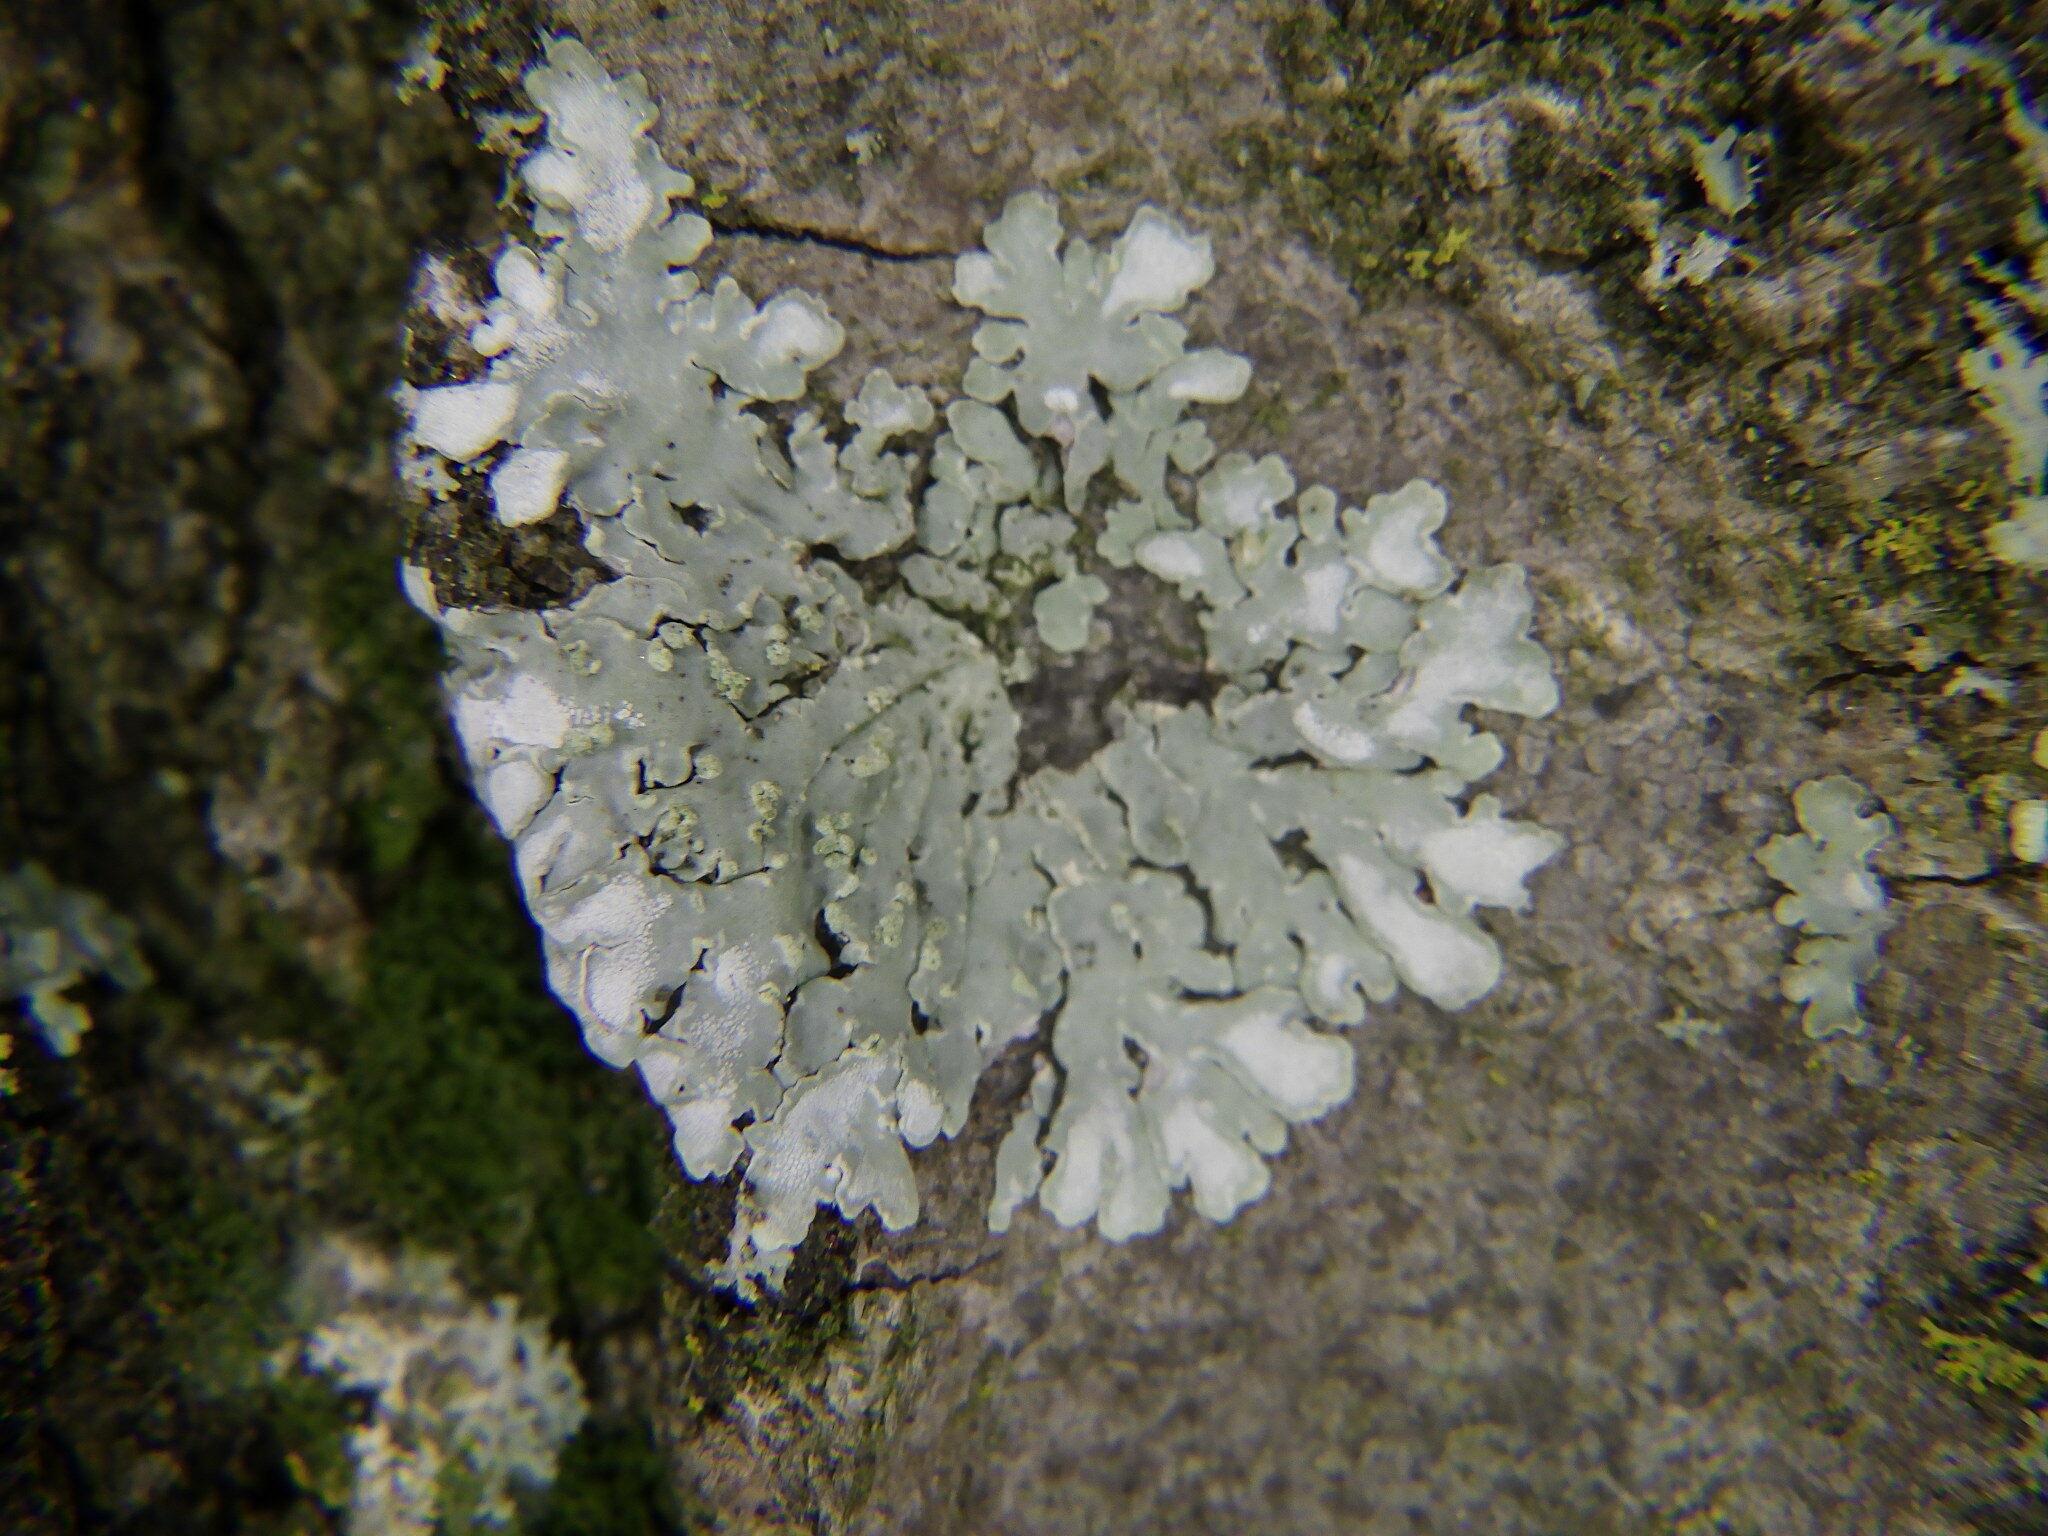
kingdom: Fungi
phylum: Ascomycota
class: Lecanoromycetes
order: Caliciales
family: Caliciaceae
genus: Pyxine
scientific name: Pyxine subcinerea
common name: Mustard lichen
